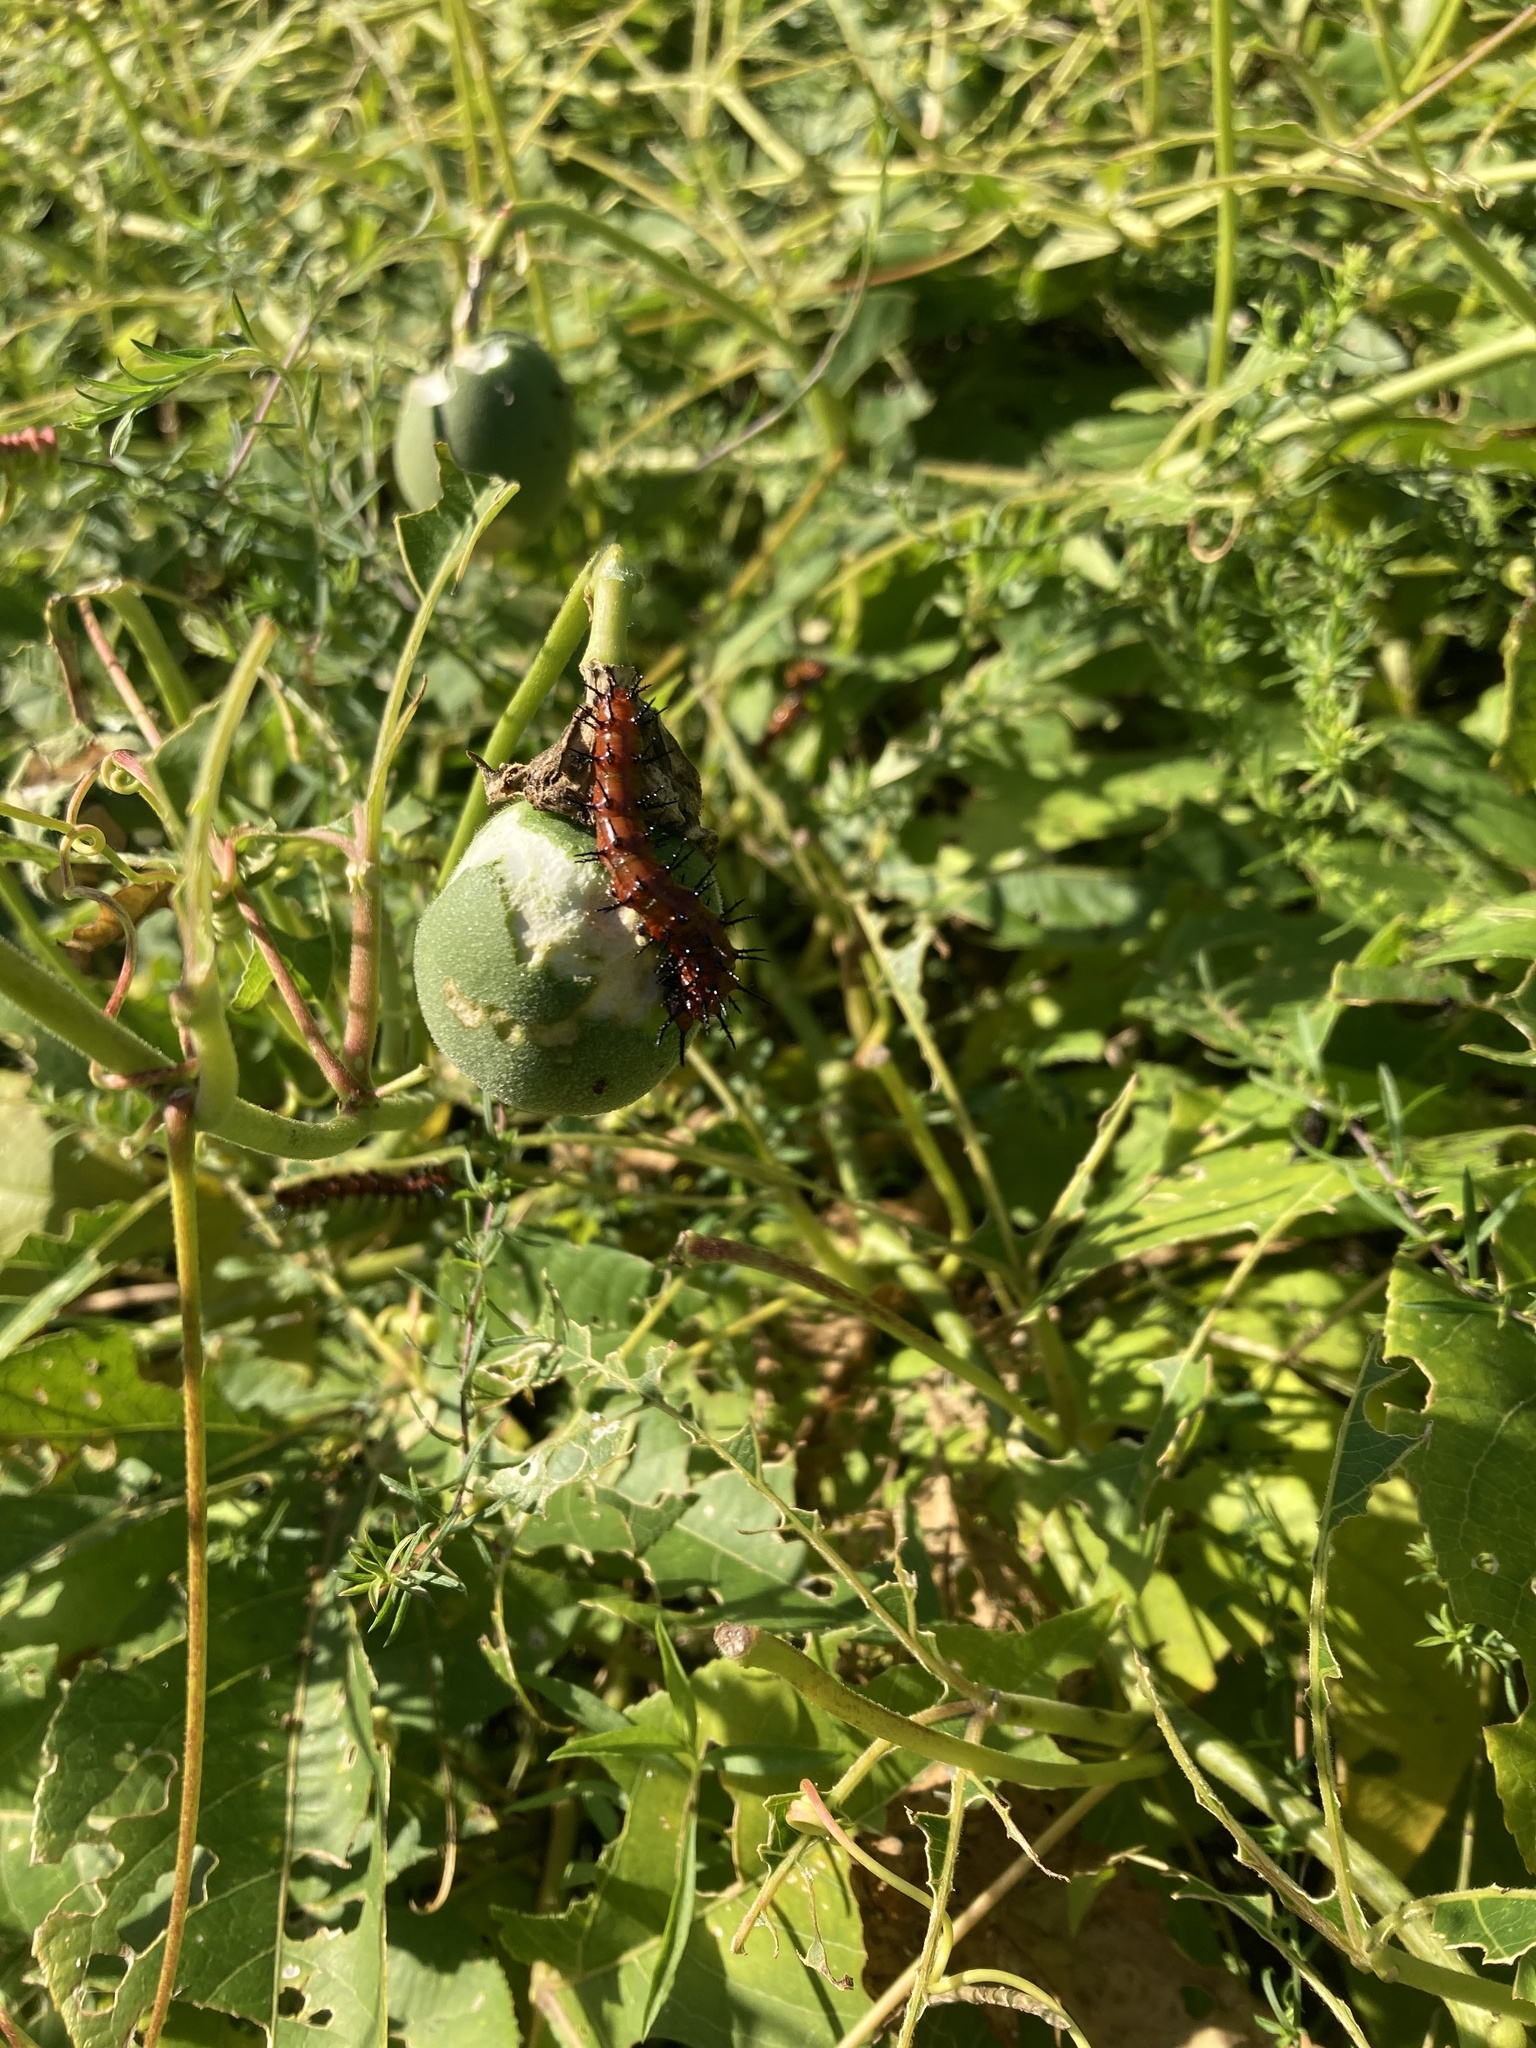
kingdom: Animalia
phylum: Arthropoda
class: Insecta
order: Lepidoptera
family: Nymphalidae
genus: Dione
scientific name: Dione vanillae
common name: Gulf fritillary
